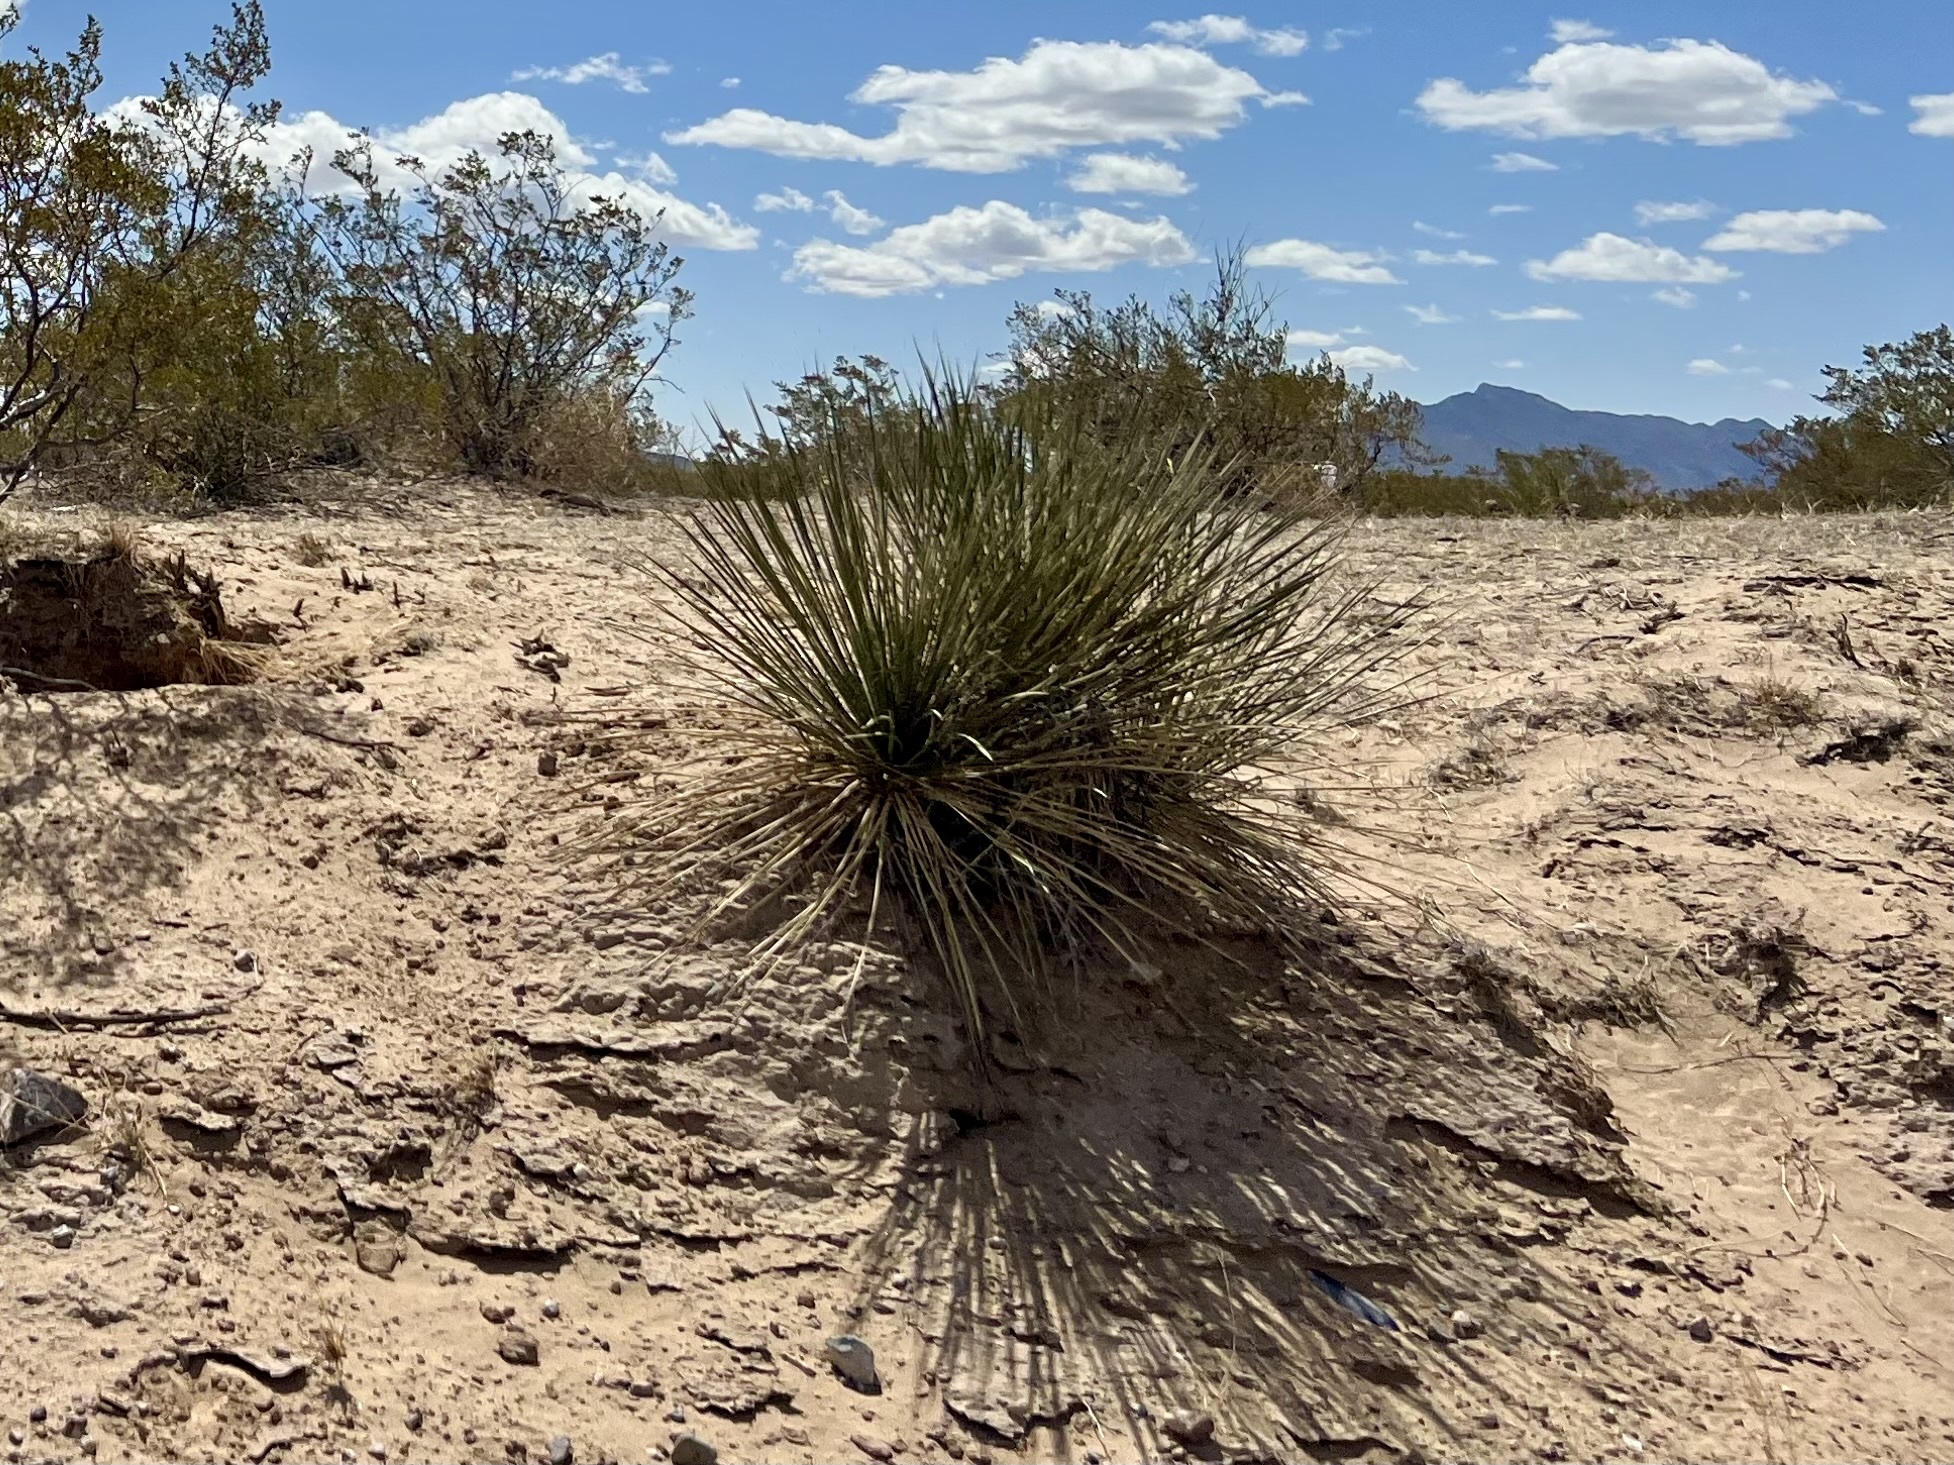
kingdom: Plantae
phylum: Tracheophyta
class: Liliopsida
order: Asparagales
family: Asparagaceae
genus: Yucca
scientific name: Yucca elata
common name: Palmella
